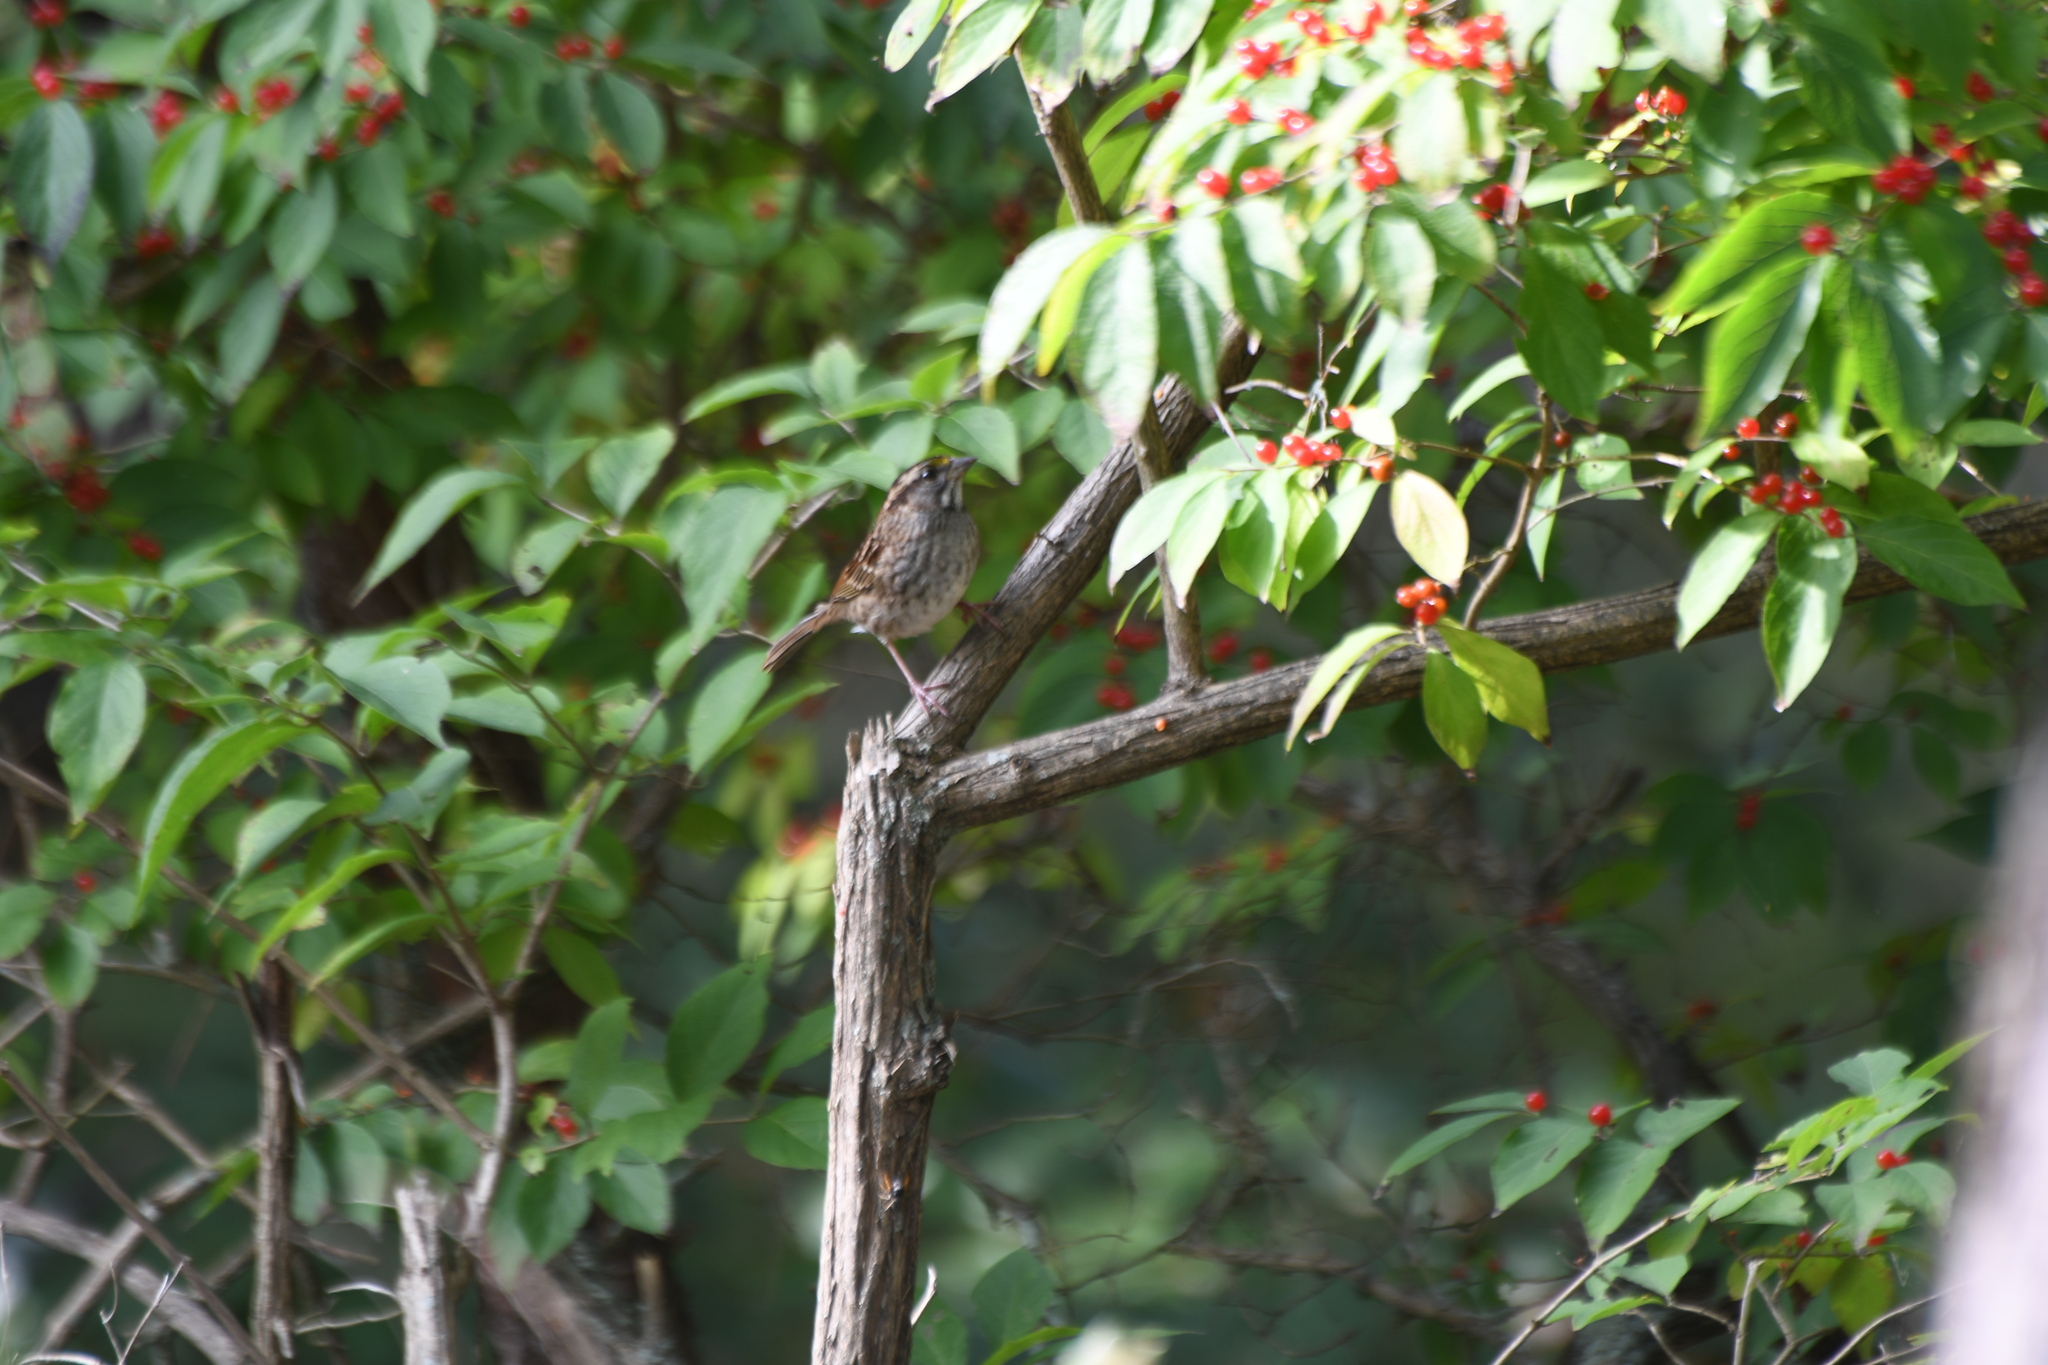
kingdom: Animalia
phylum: Chordata
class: Aves
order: Passeriformes
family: Passerellidae
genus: Zonotrichia
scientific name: Zonotrichia albicollis
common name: White-throated sparrow
